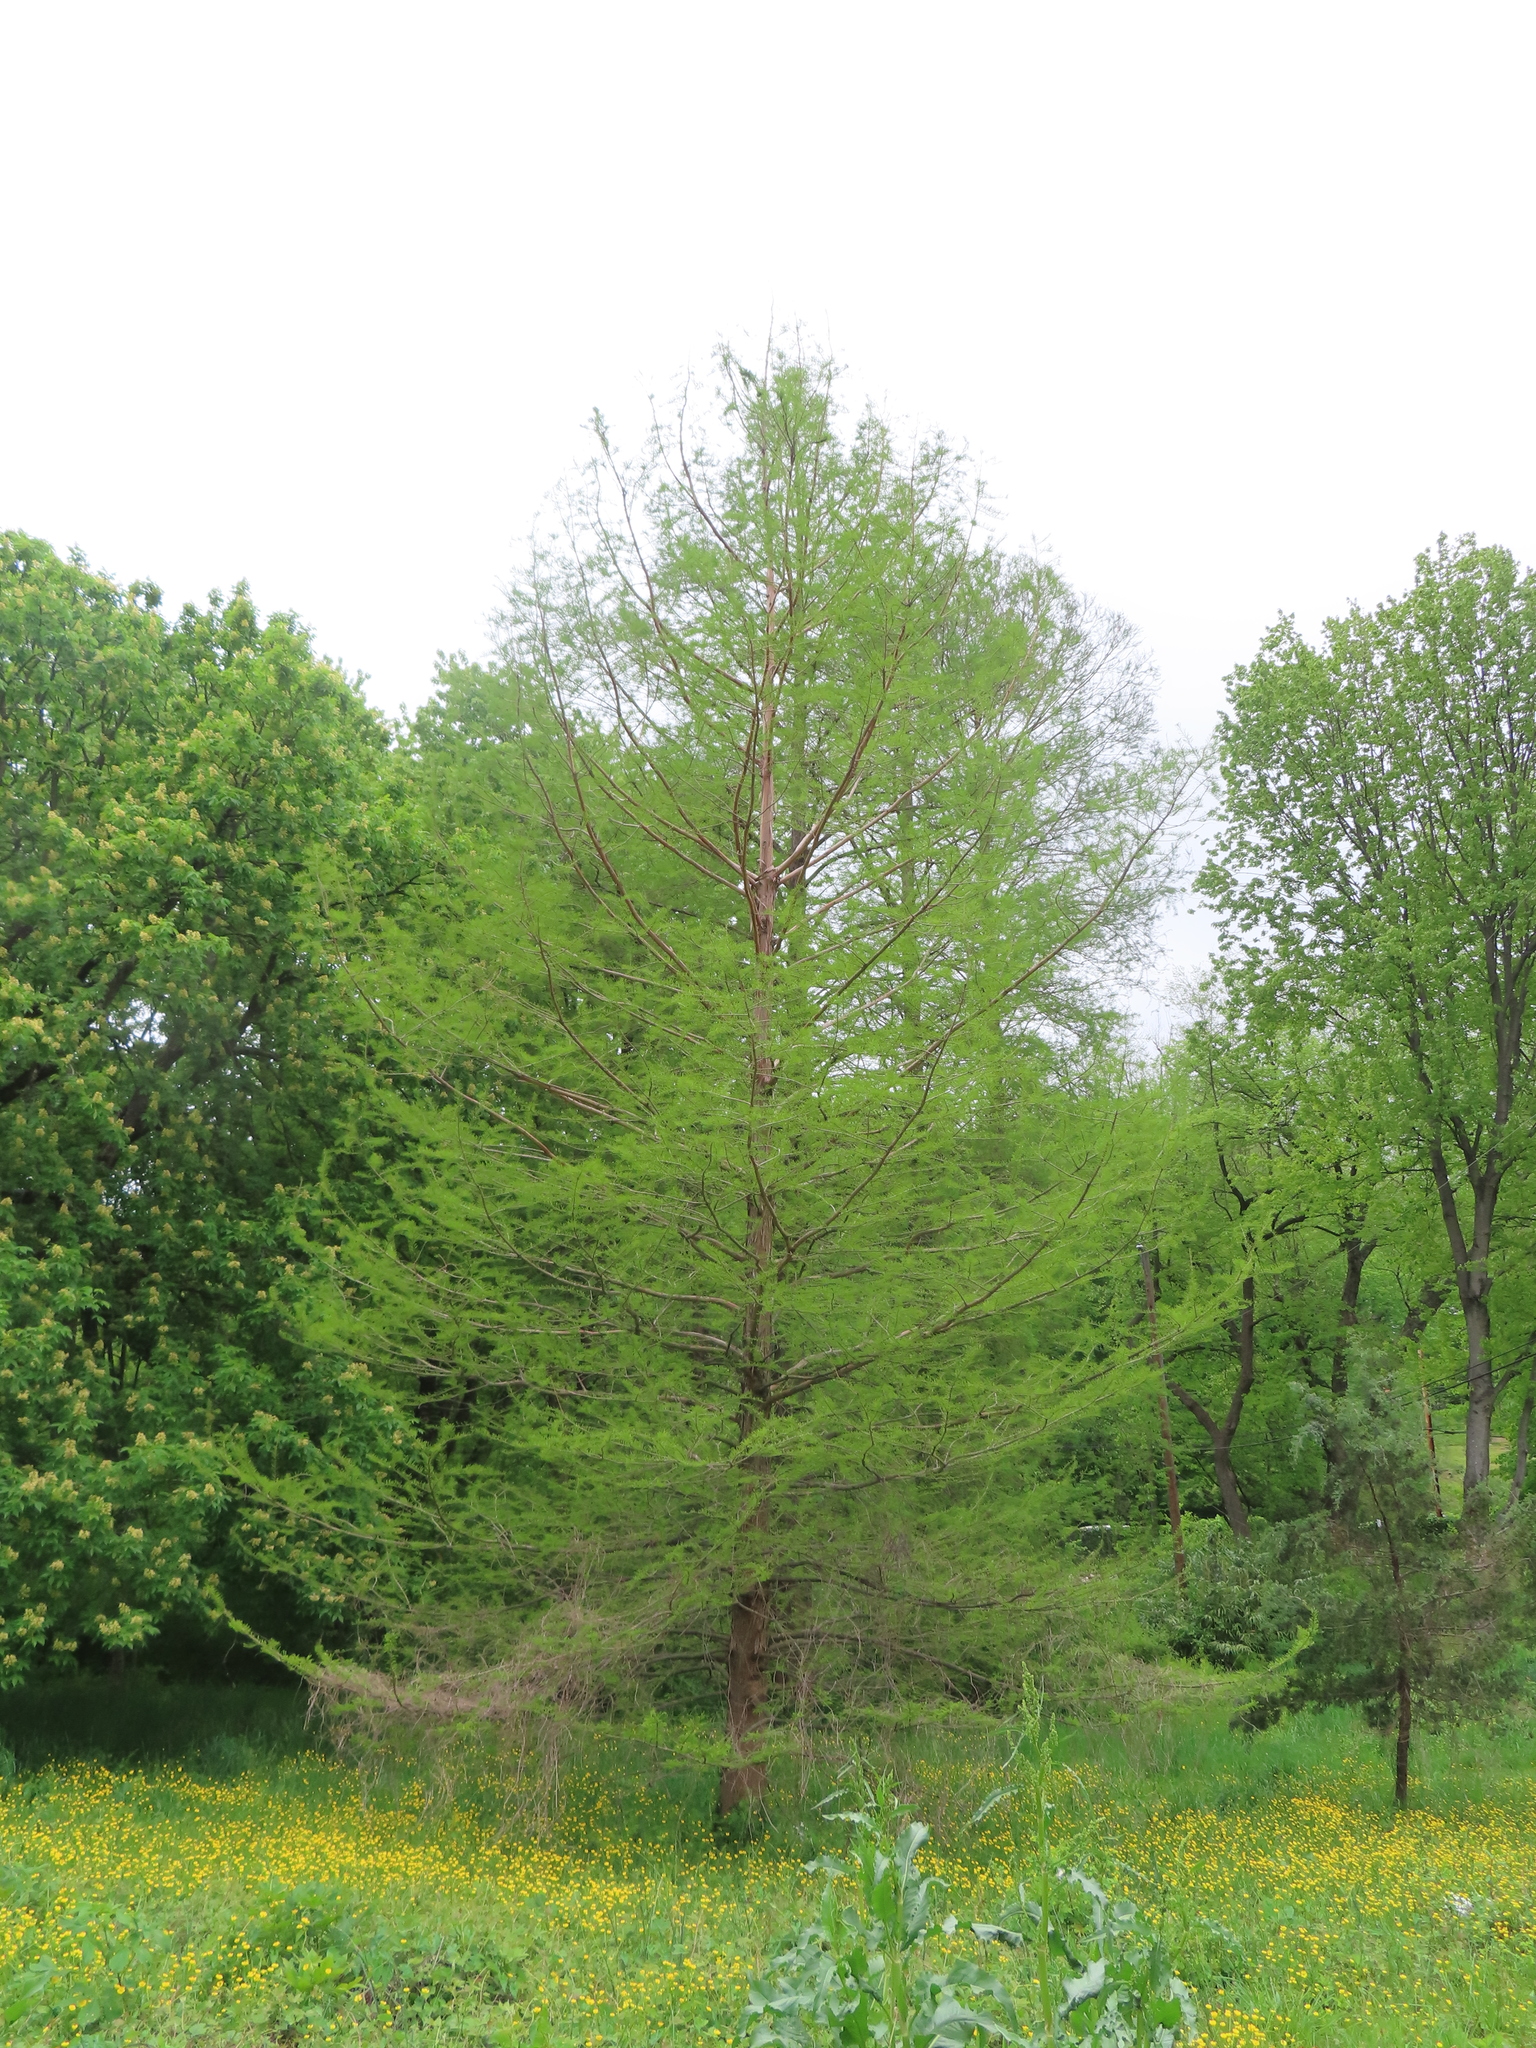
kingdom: Plantae
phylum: Tracheophyta
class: Pinopsida
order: Pinales
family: Cupressaceae
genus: Taxodium
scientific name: Taxodium distichum
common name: Bald cypress
